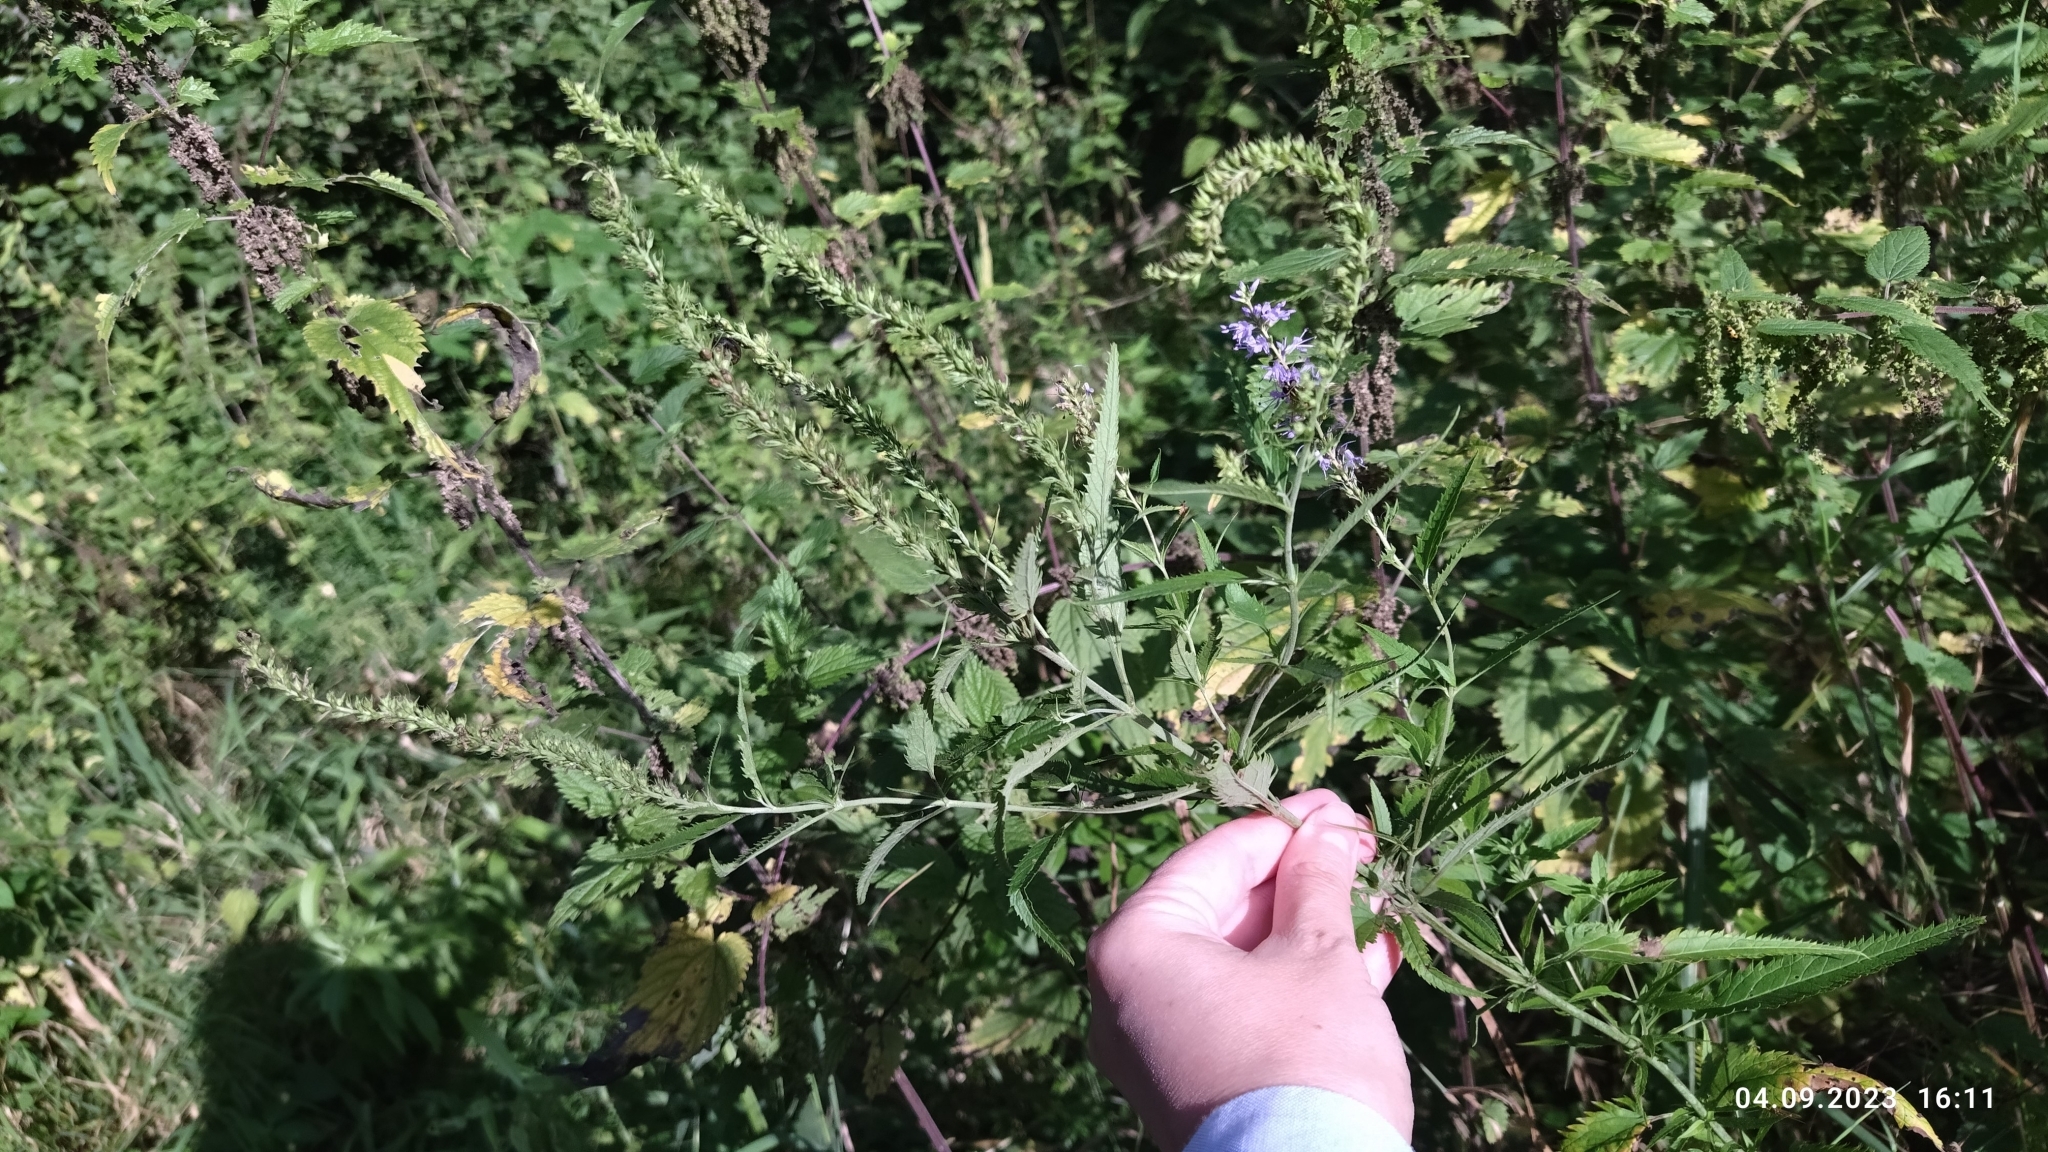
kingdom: Plantae
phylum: Tracheophyta
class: Magnoliopsida
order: Lamiales
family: Plantaginaceae
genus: Veronica
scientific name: Veronica longifolia
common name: Garden speedwell
